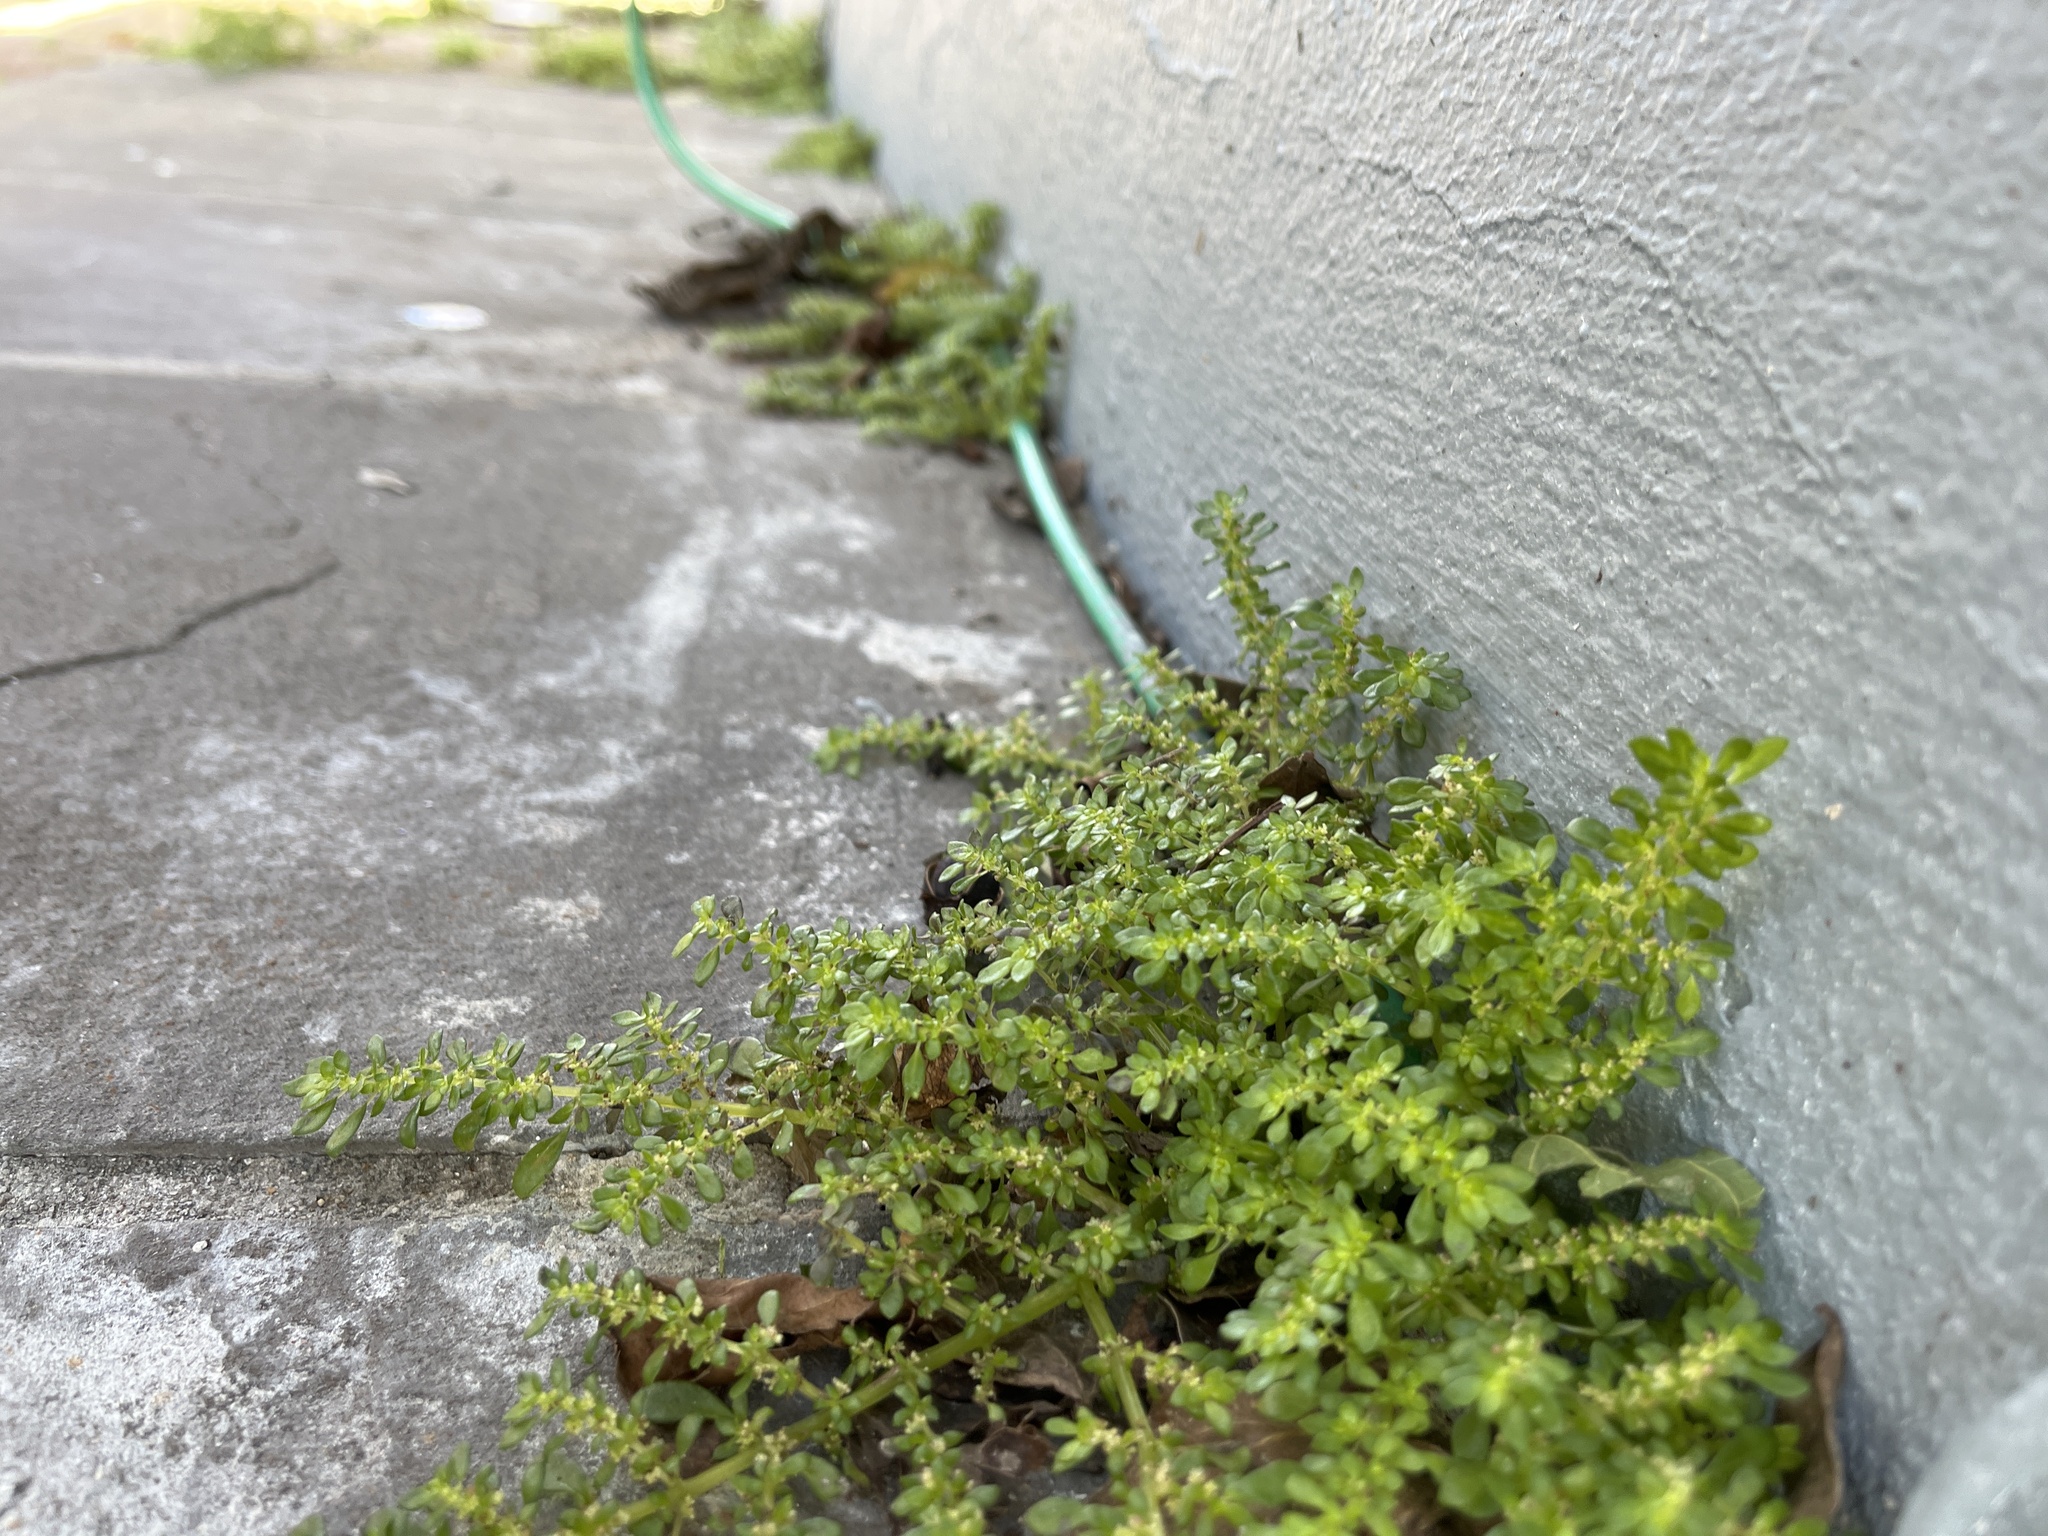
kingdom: Plantae
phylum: Tracheophyta
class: Magnoliopsida
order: Rosales
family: Urticaceae
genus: Pilea
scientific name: Pilea microphylla
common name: Artillery-plant
